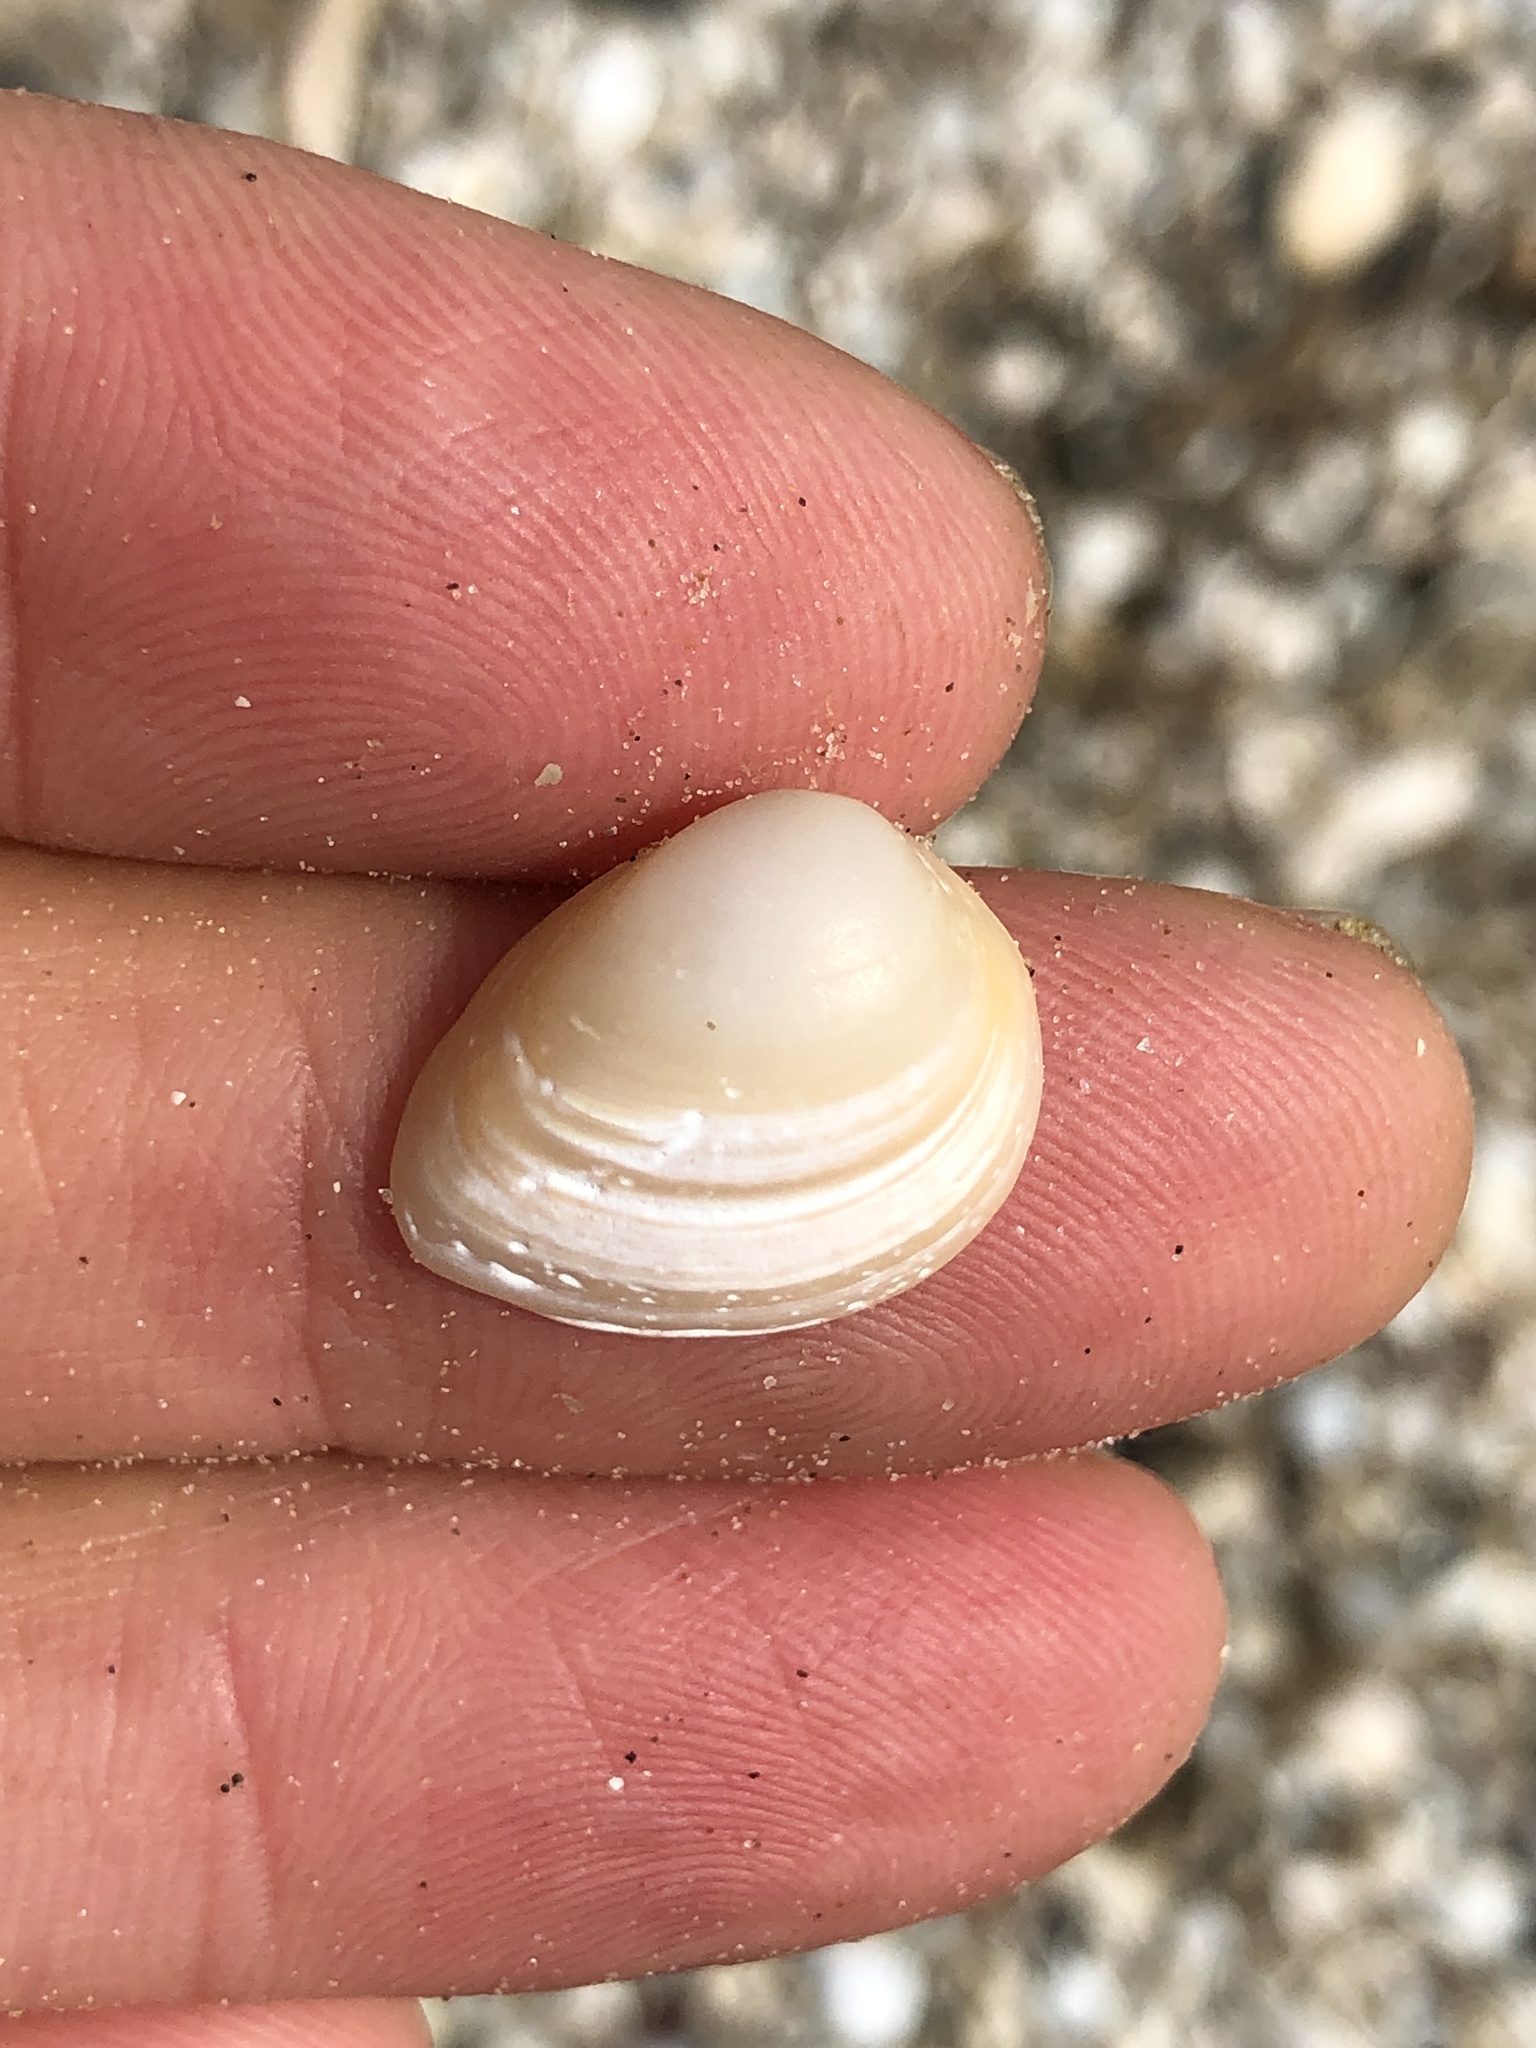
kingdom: Animalia
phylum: Mollusca
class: Bivalvia
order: Venerida
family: Mactridae
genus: Rangia
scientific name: Rangia cuneata
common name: Atlantic rangia
